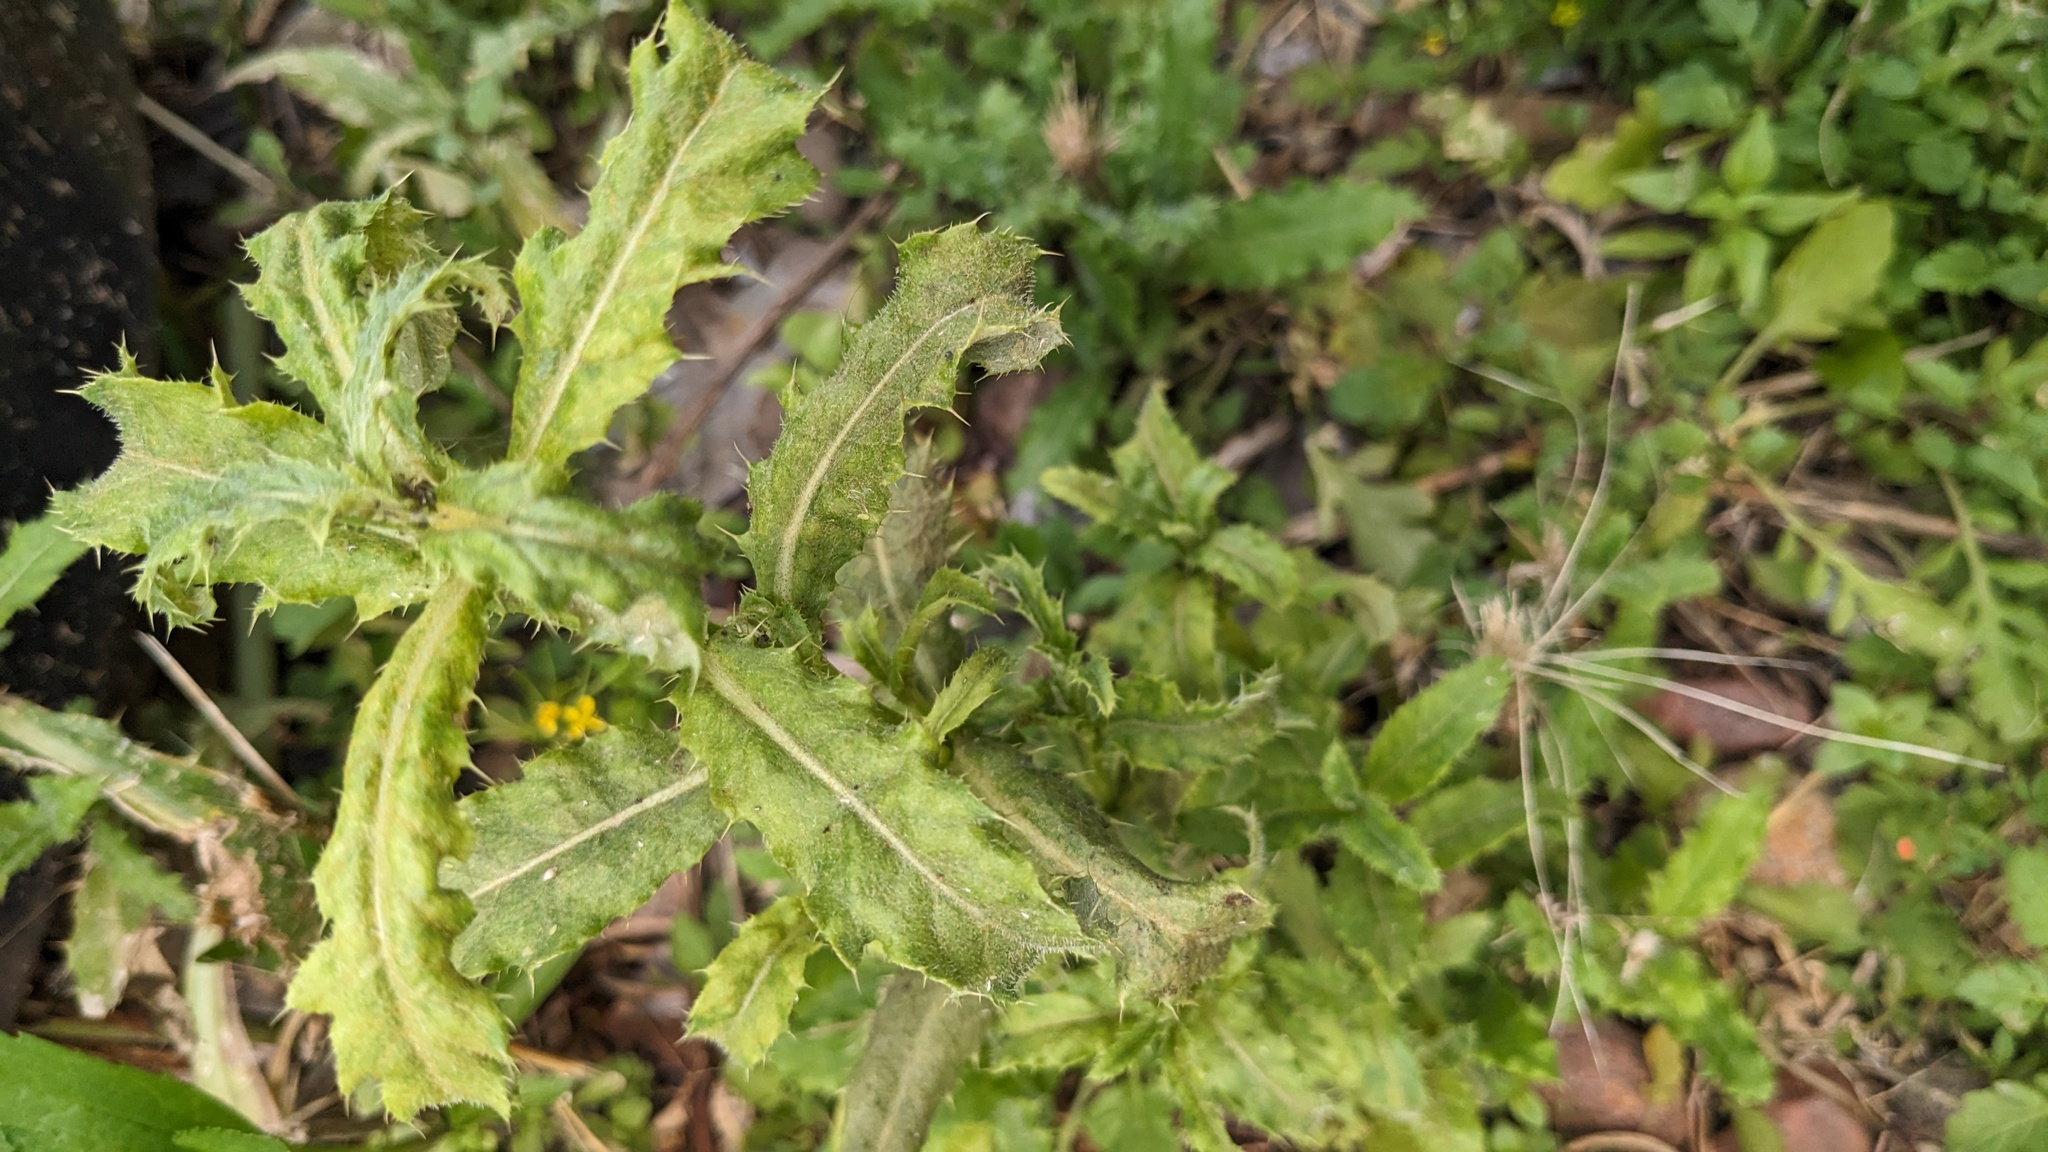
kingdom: Plantae
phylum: Tracheophyta
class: Magnoliopsida
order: Asterales
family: Asteraceae
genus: Cirsium
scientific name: Cirsium arvense
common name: Creeping thistle
